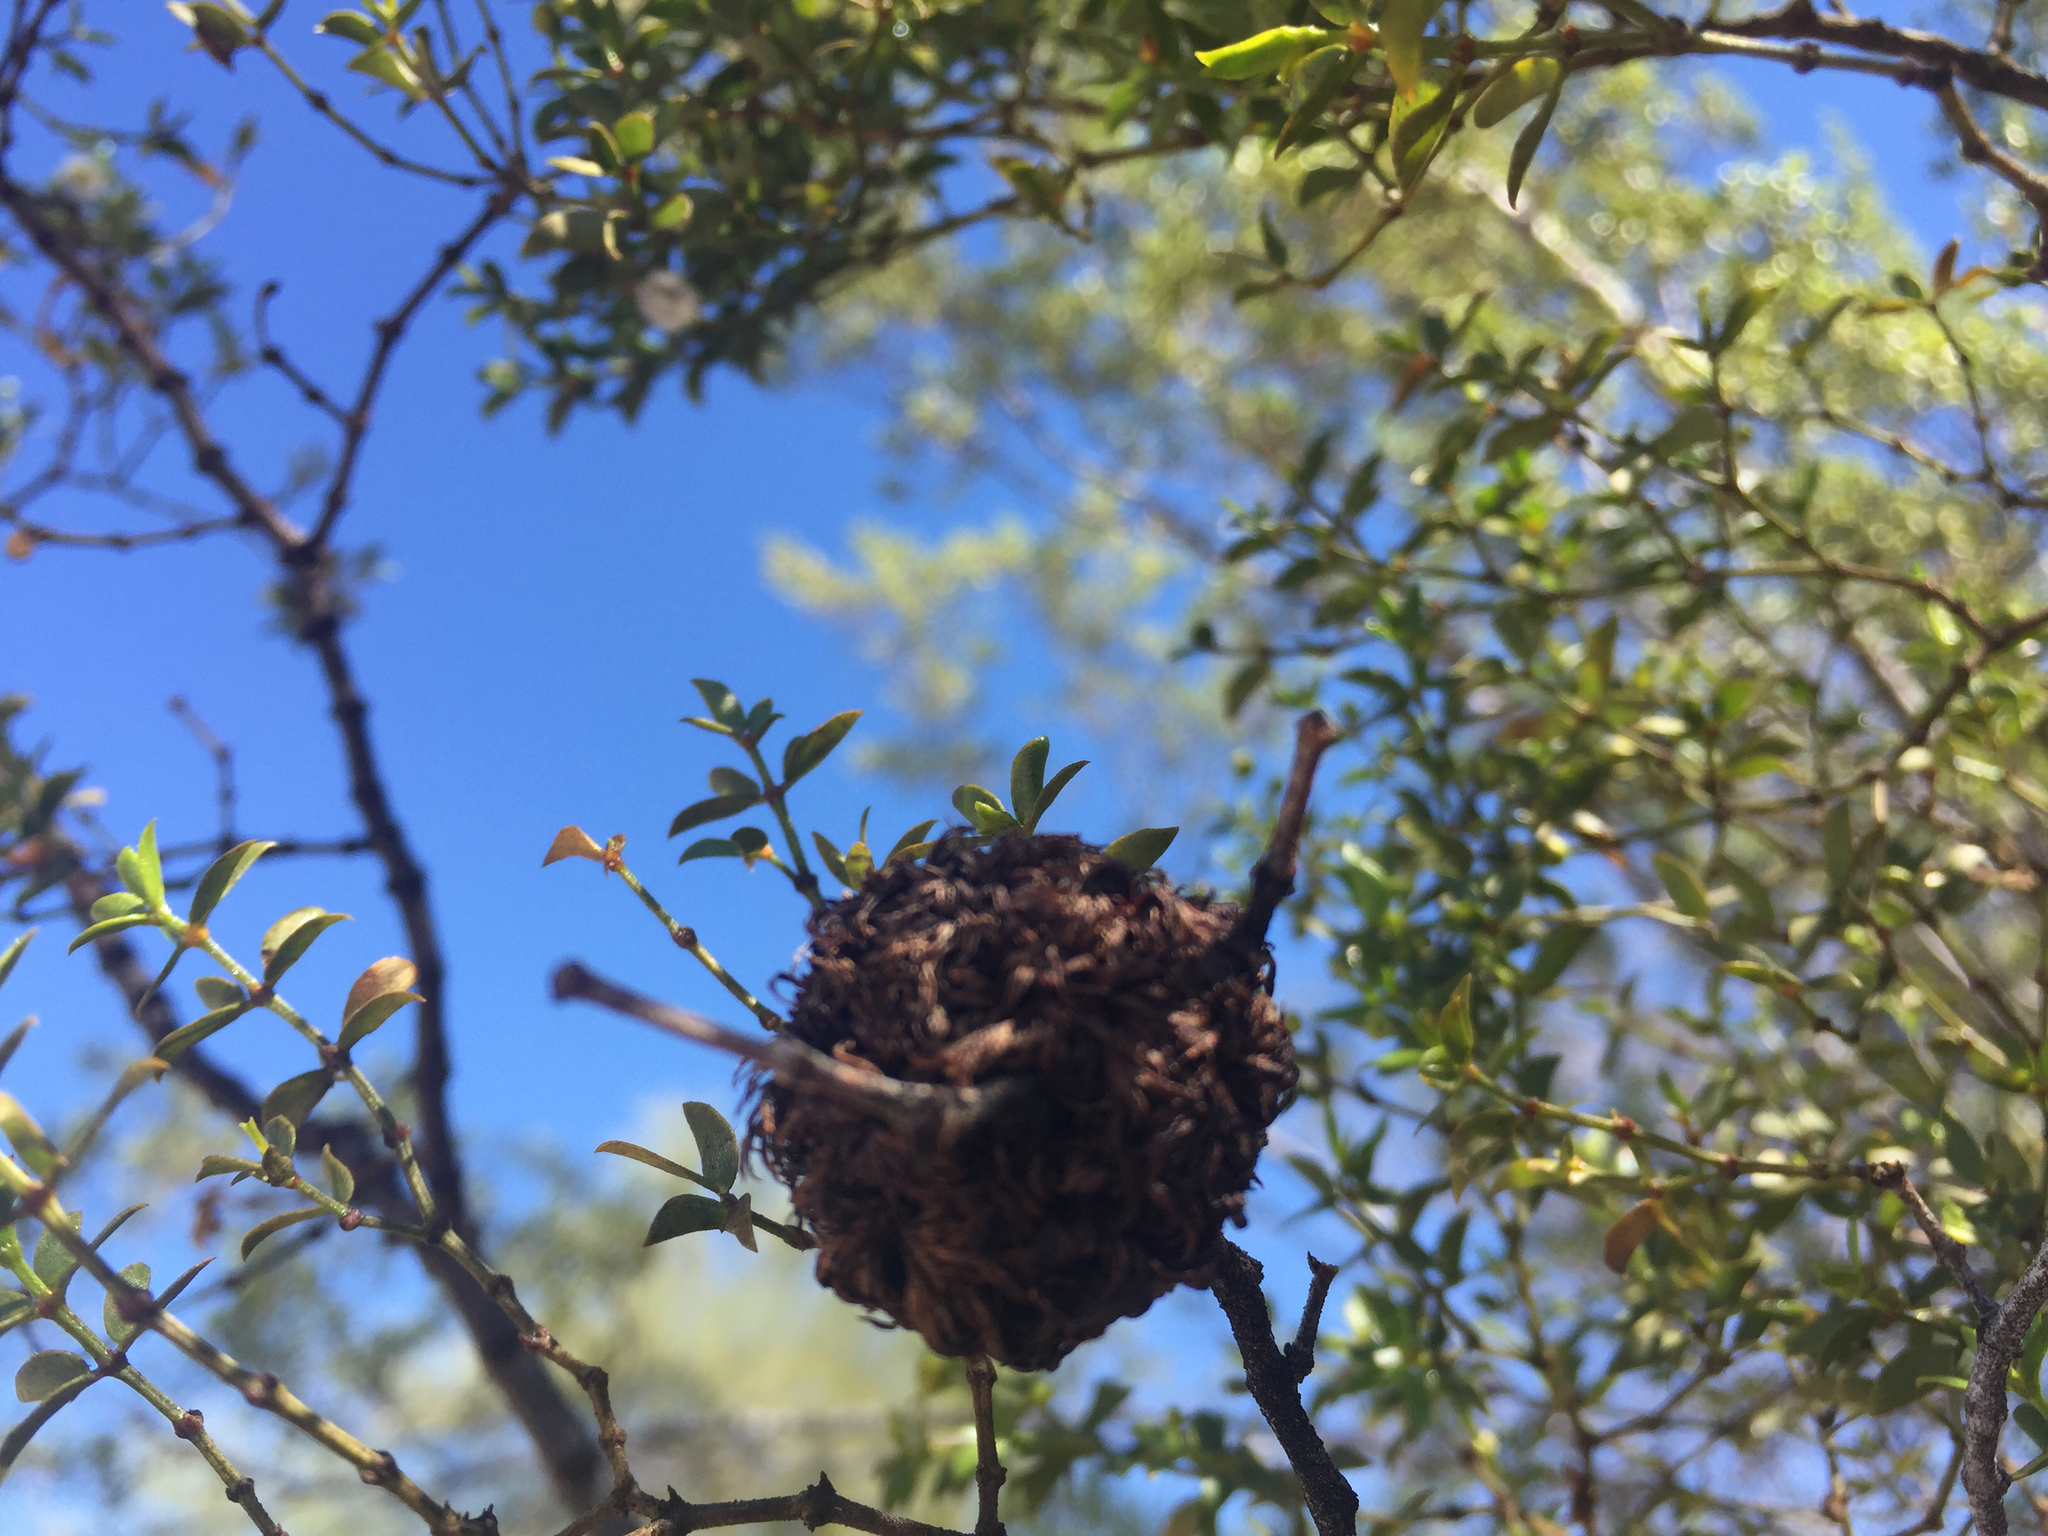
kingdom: Animalia
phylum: Arthropoda
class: Insecta
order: Diptera
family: Cecidomyiidae
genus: Asphondylia
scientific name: Asphondylia auripila
